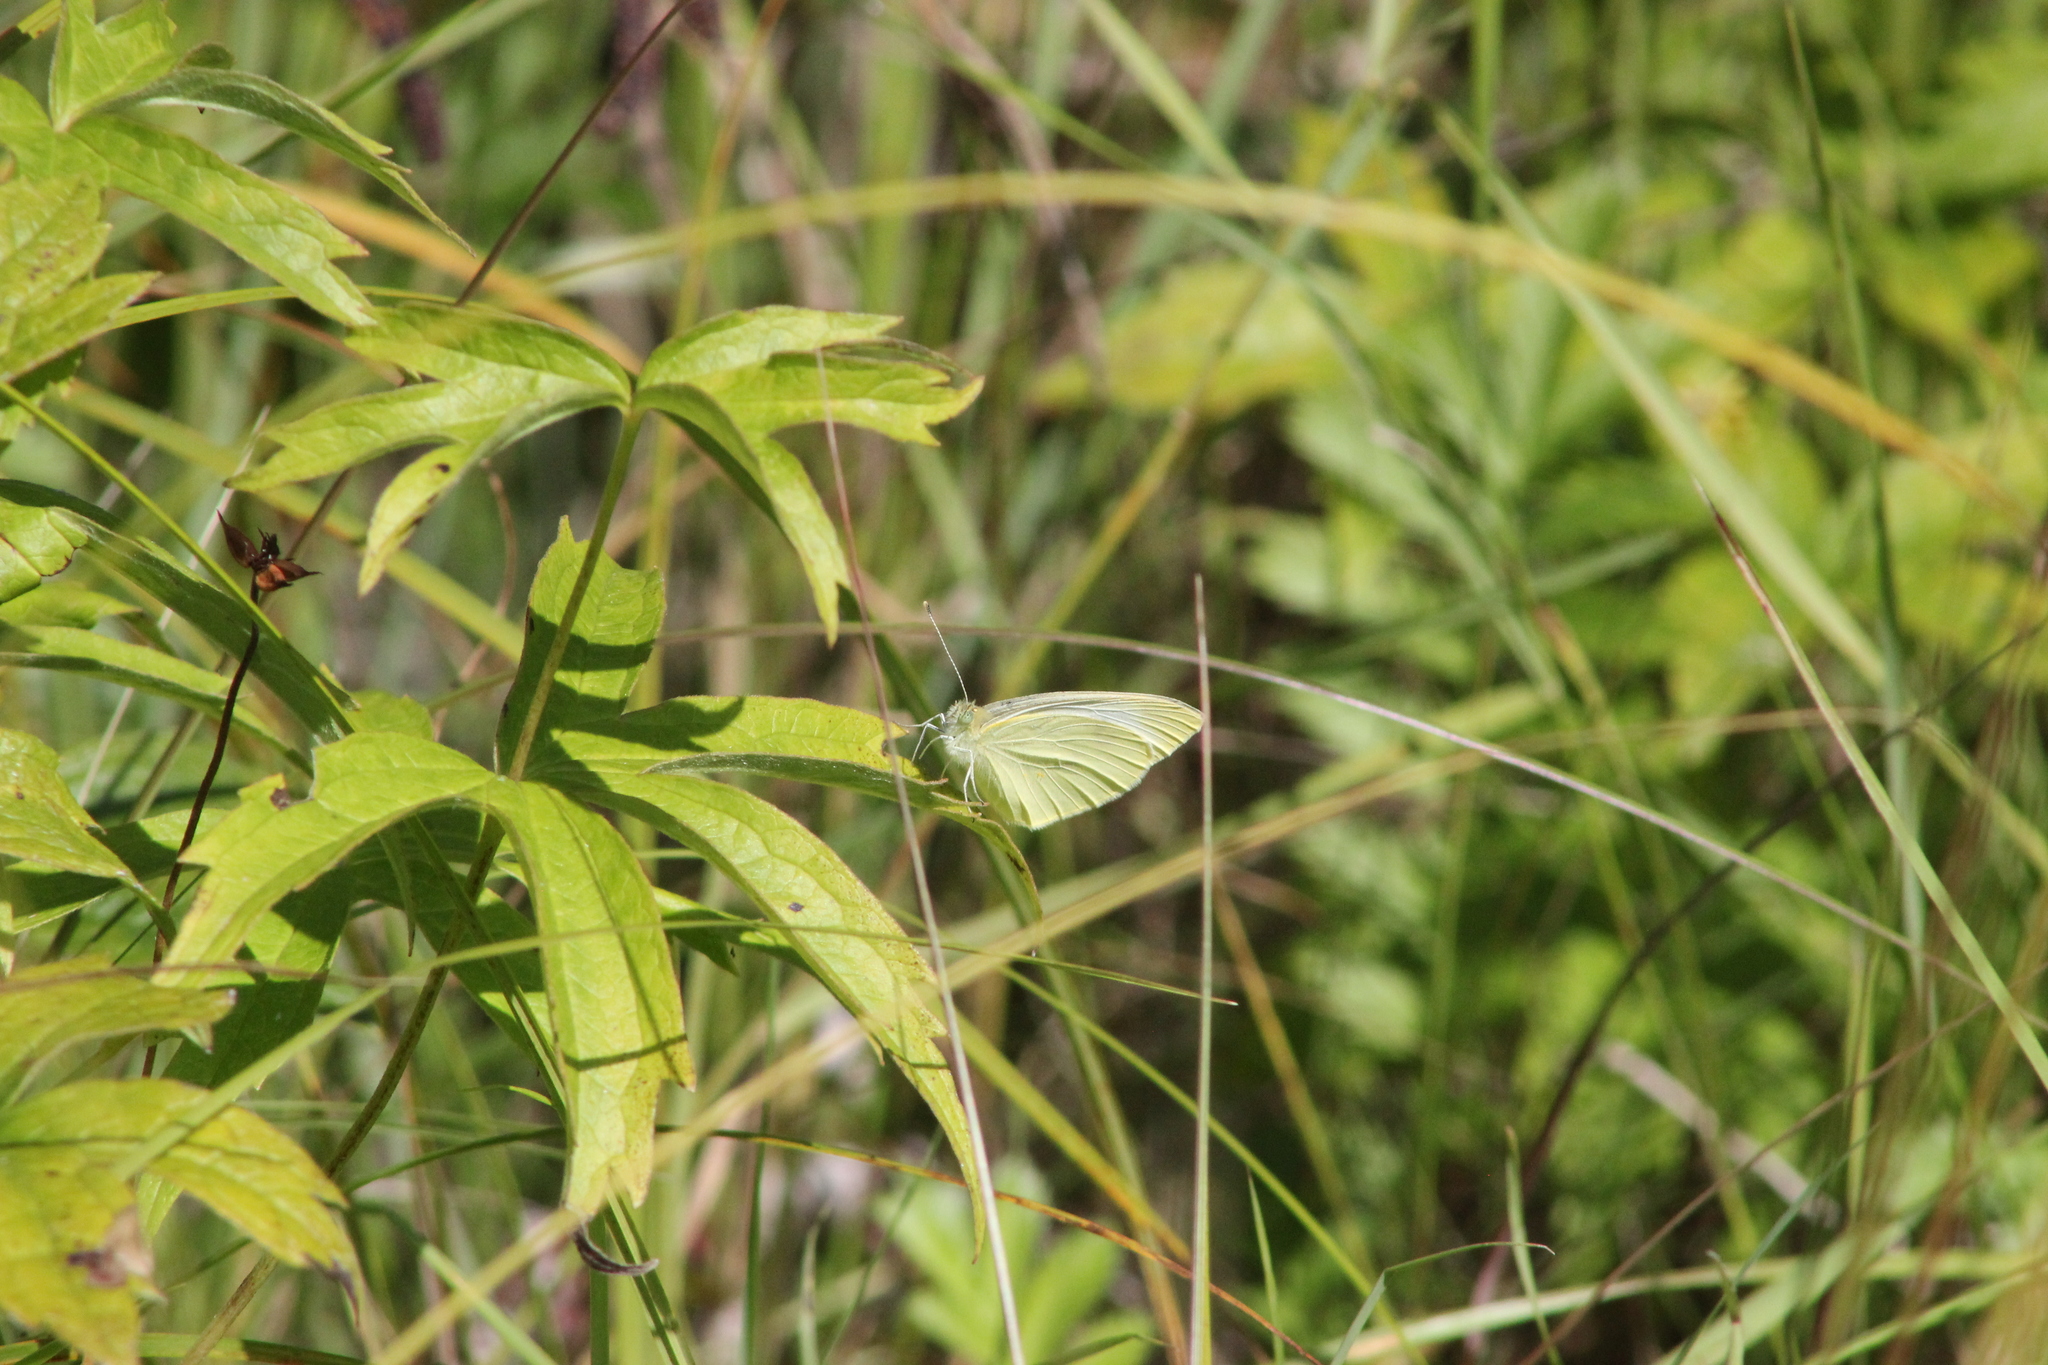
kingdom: Animalia
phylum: Arthropoda
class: Insecta
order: Lepidoptera
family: Pieridae
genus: Pieris
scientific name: Pieris rapae
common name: Small white
